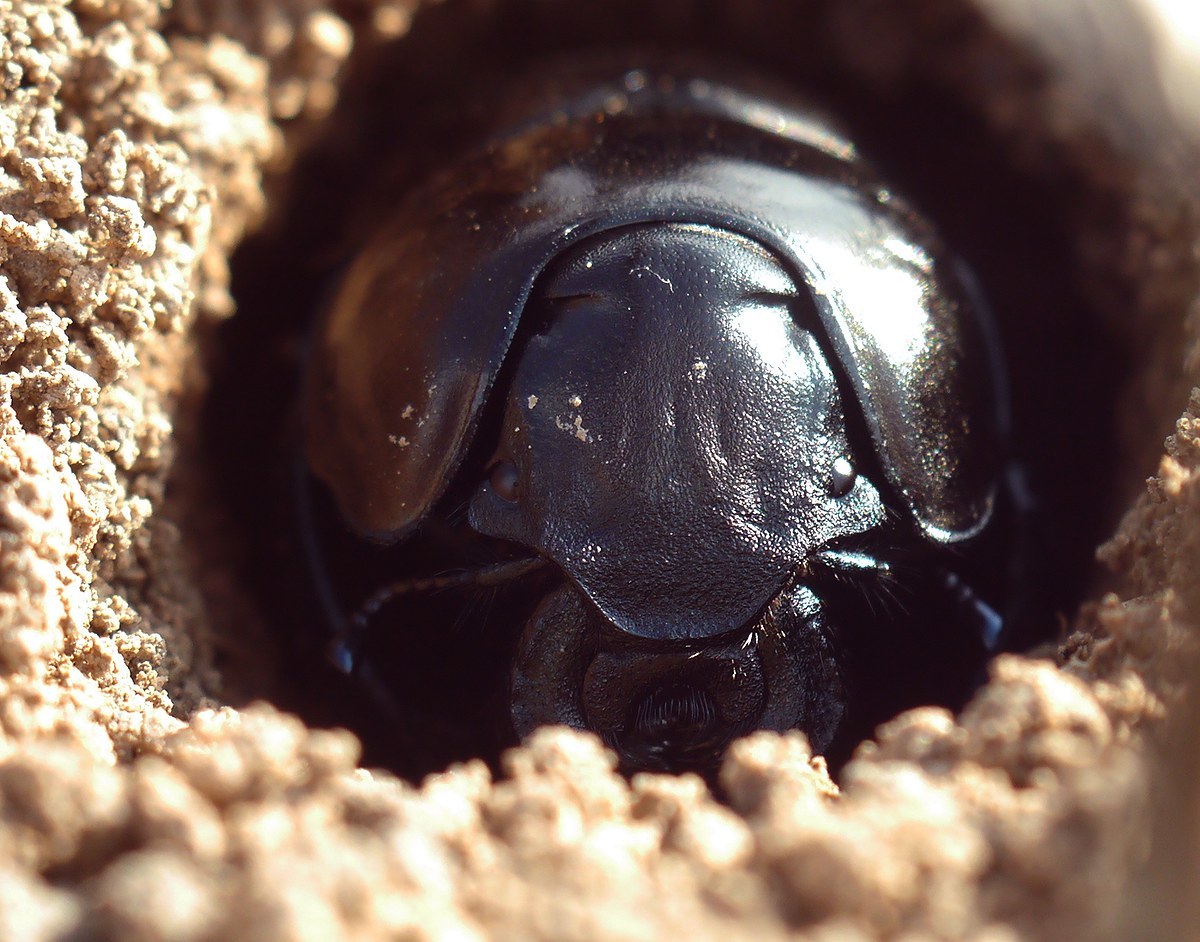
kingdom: Animalia
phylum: Arthropoda
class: Insecta
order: Coleoptera
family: Geotrupidae
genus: Lethrus
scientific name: Lethrus apterus
